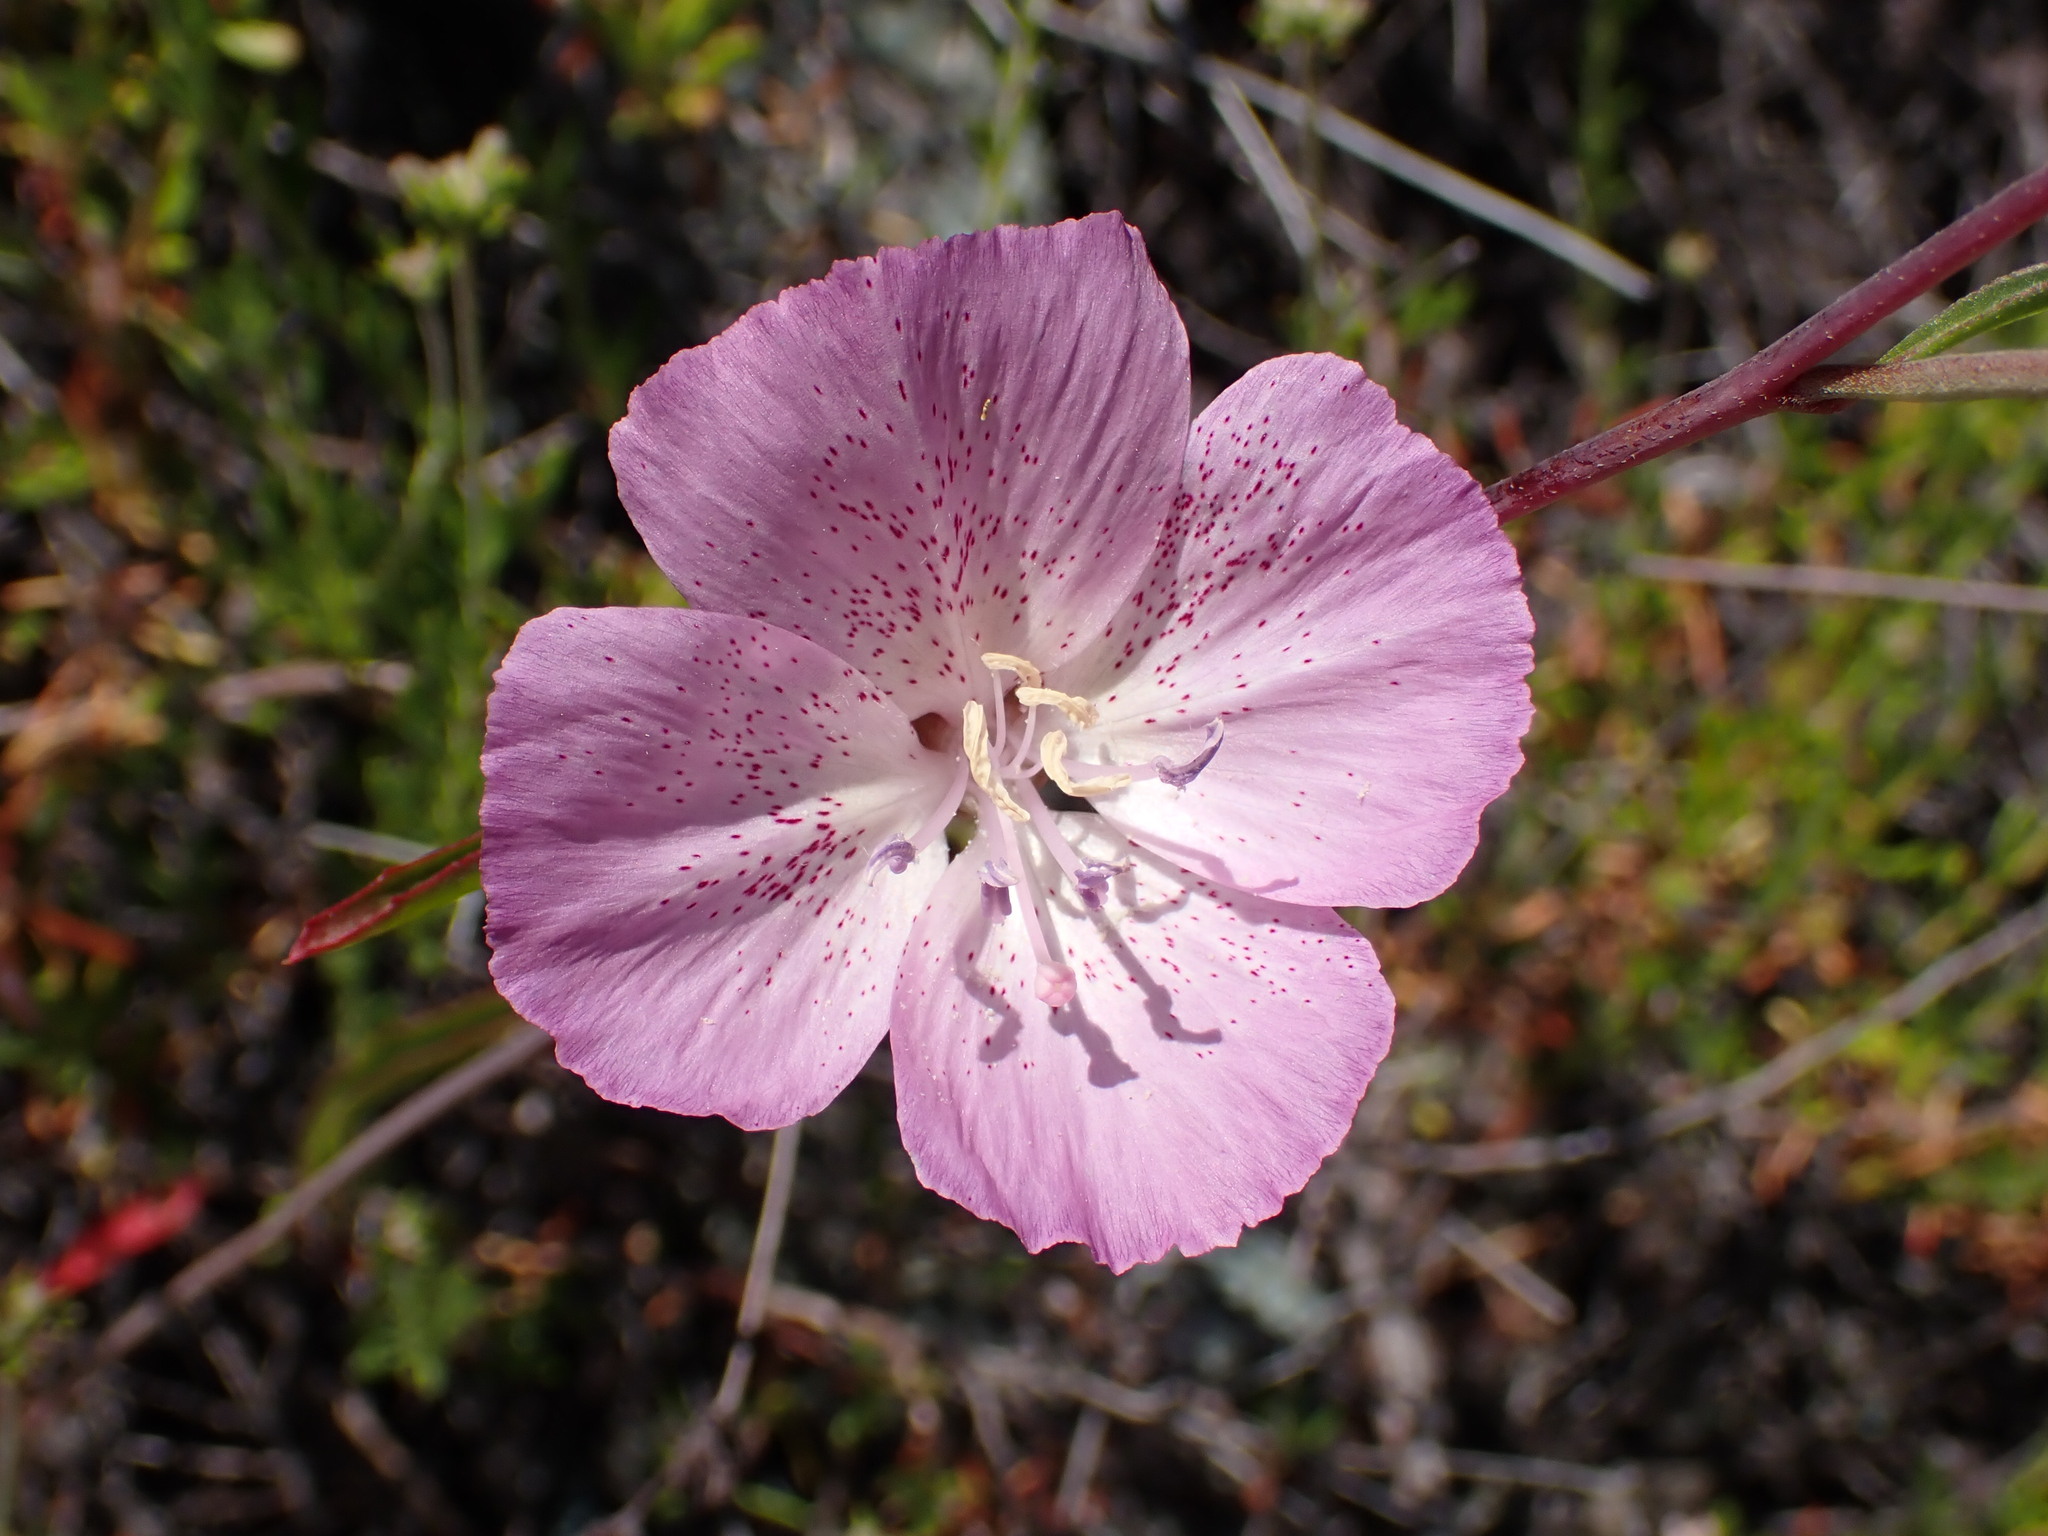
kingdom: Plantae
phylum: Tracheophyta
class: Magnoliopsida
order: Myrtales
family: Onagraceae
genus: Clarkia
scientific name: Clarkia bottae
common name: Punch-bowl godetia
